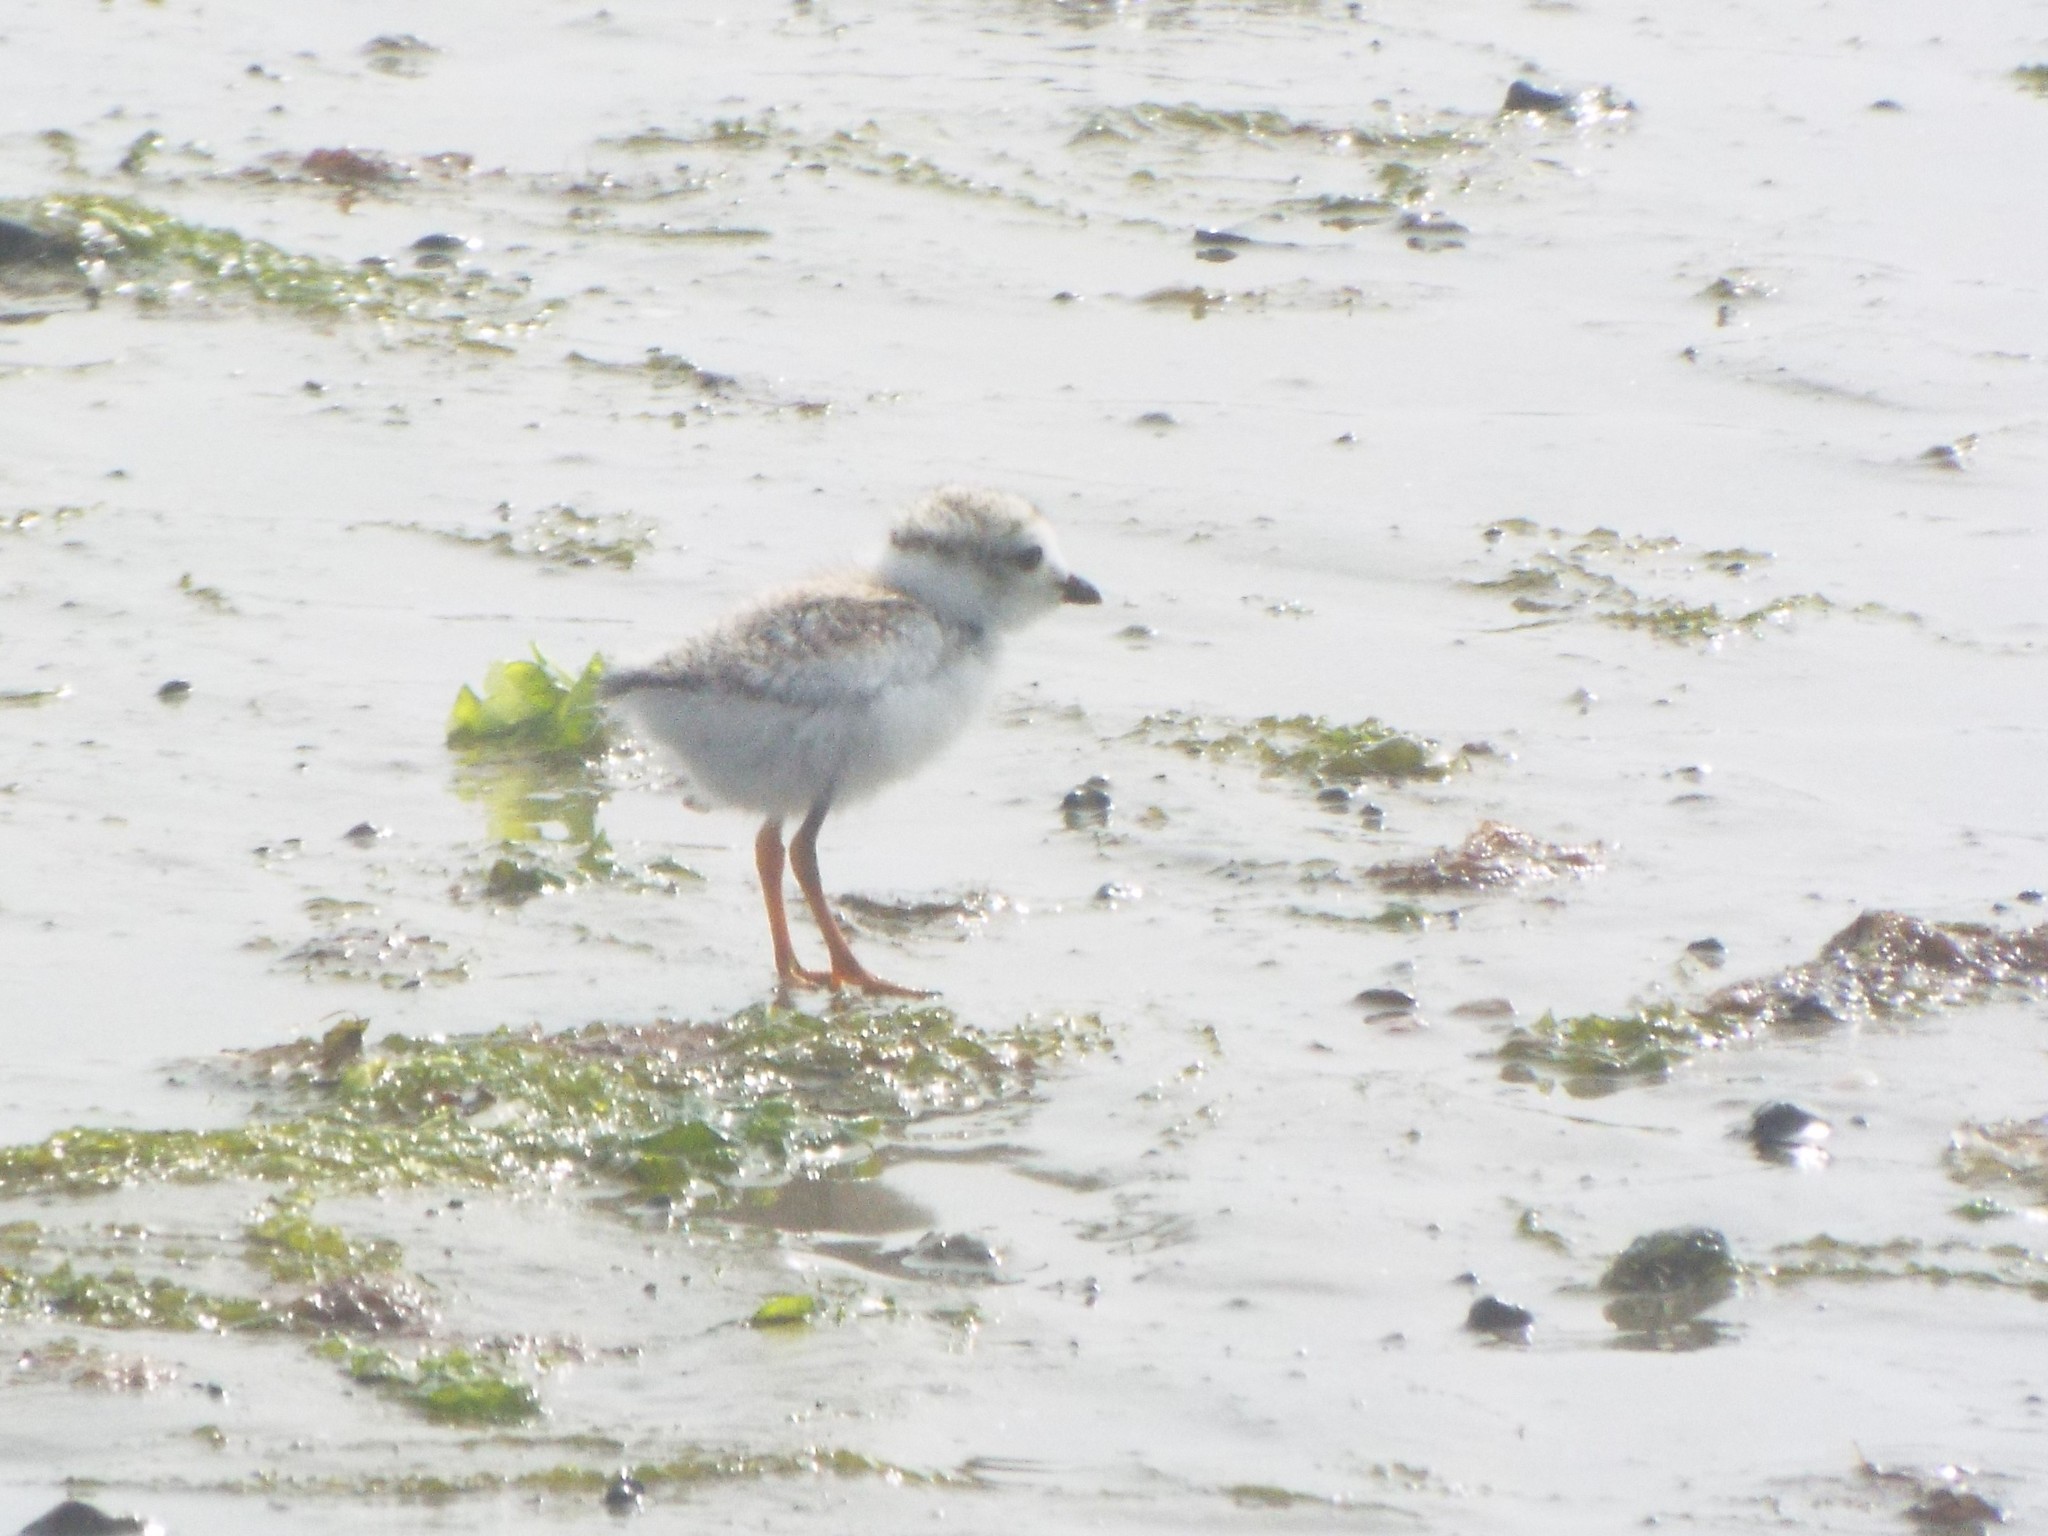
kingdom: Animalia
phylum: Chordata
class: Aves
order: Charadriiformes
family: Charadriidae
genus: Charadrius
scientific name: Charadrius melodus
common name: Piping plover
